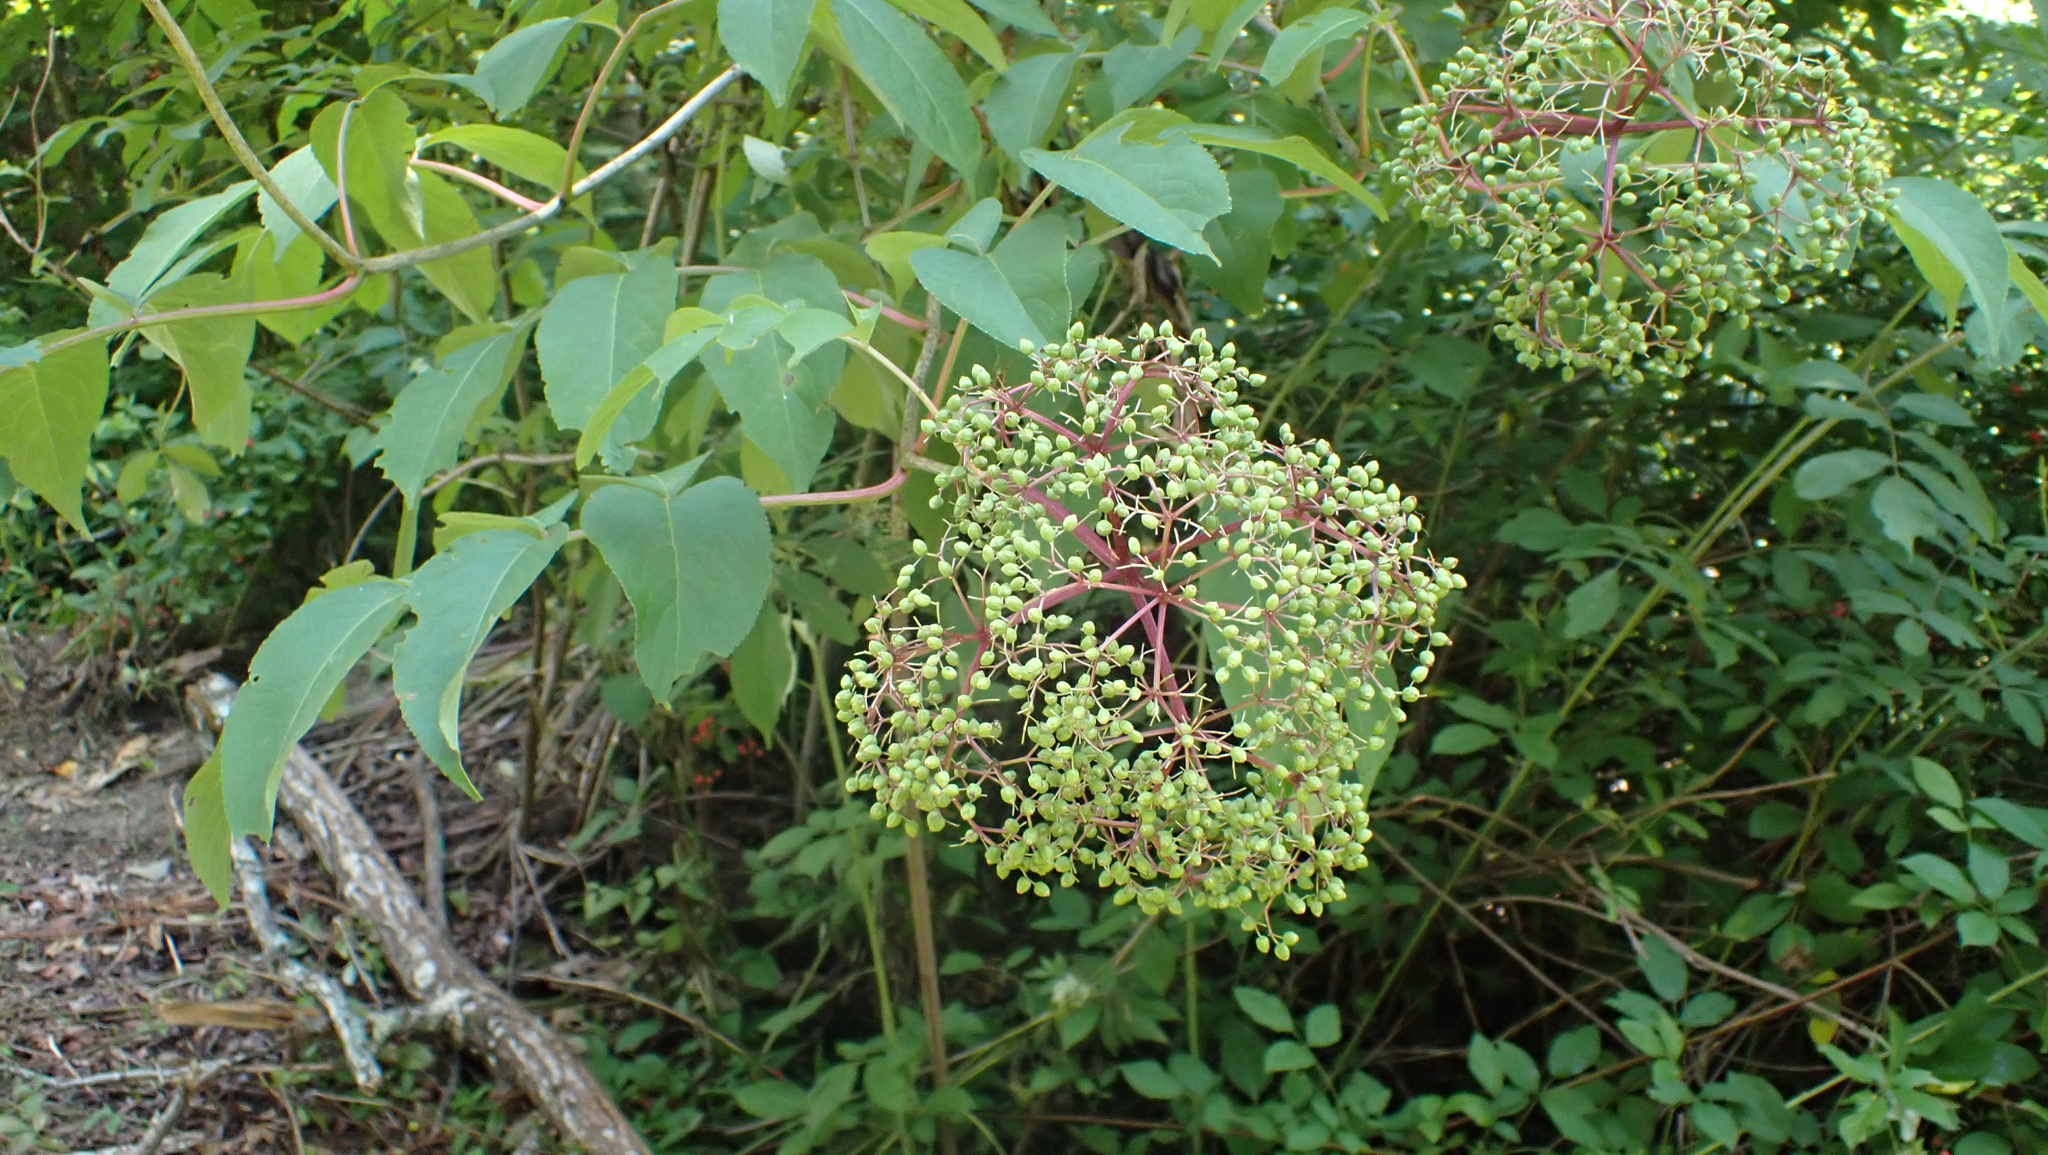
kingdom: Plantae
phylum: Tracheophyta
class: Magnoliopsida
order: Dipsacales
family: Viburnaceae
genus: Sambucus
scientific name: Sambucus canadensis
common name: American elder
